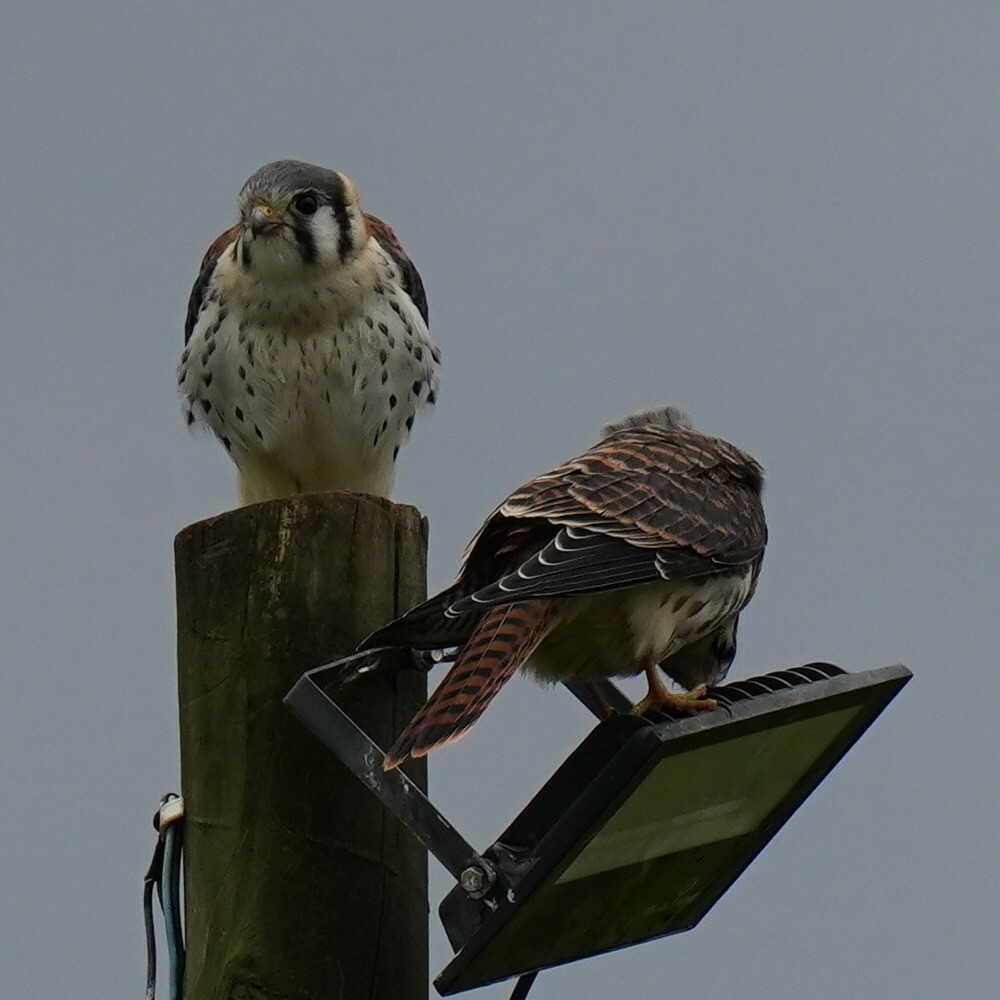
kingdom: Animalia
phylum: Chordata
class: Aves
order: Falconiformes
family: Falconidae
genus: Falco
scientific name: Falco sparverius
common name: American kestrel
